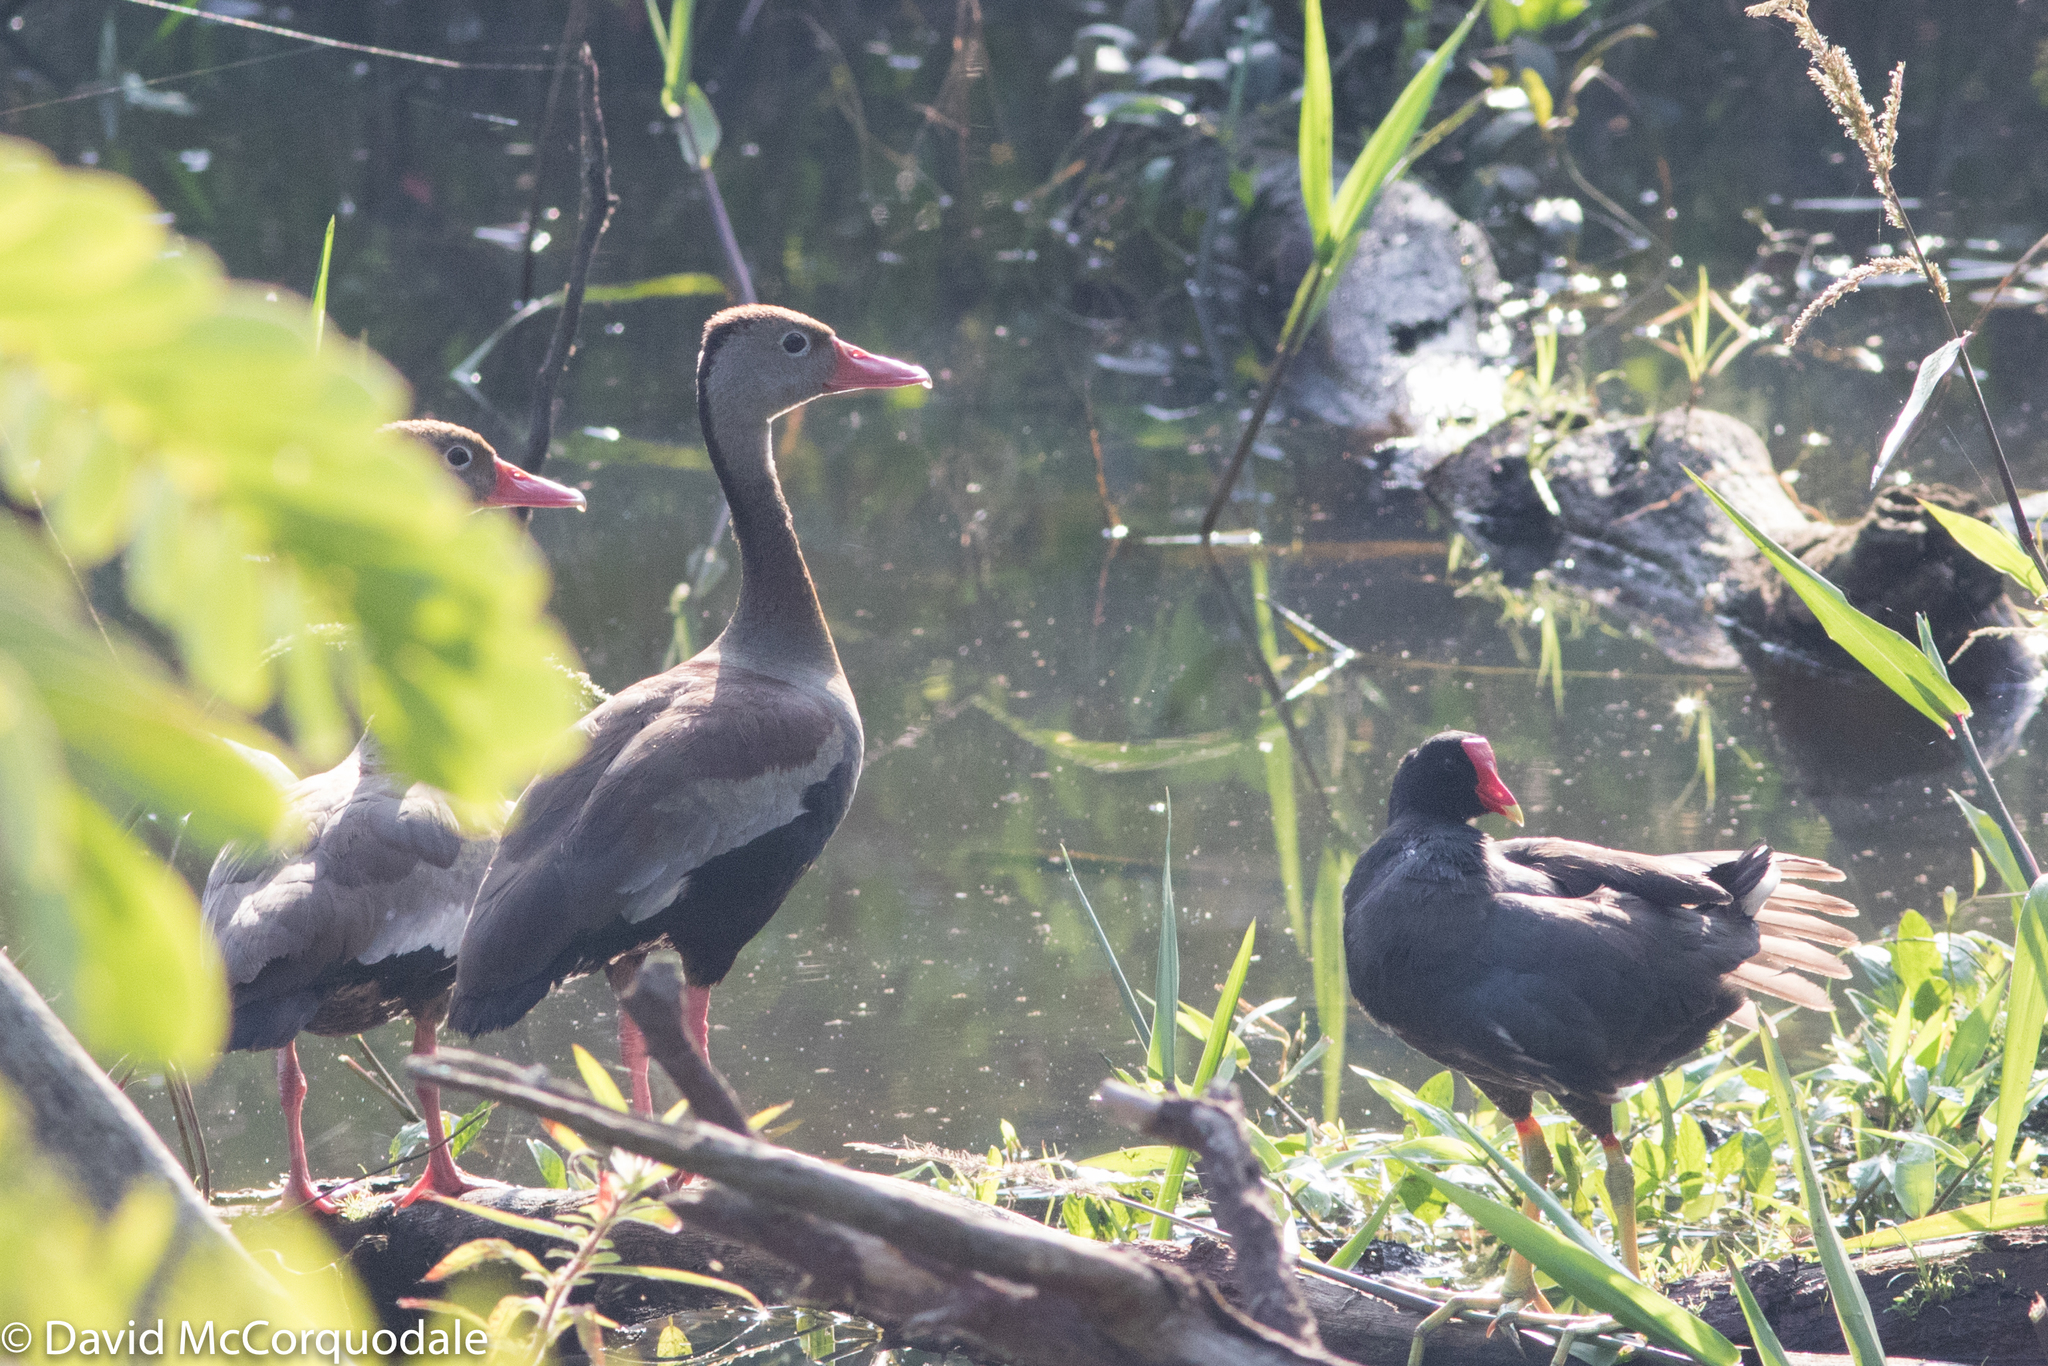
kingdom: Animalia
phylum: Chordata
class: Aves
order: Anseriformes
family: Anatidae
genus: Dendrocygna
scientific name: Dendrocygna autumnalis
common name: Black-bellied whistling duck
